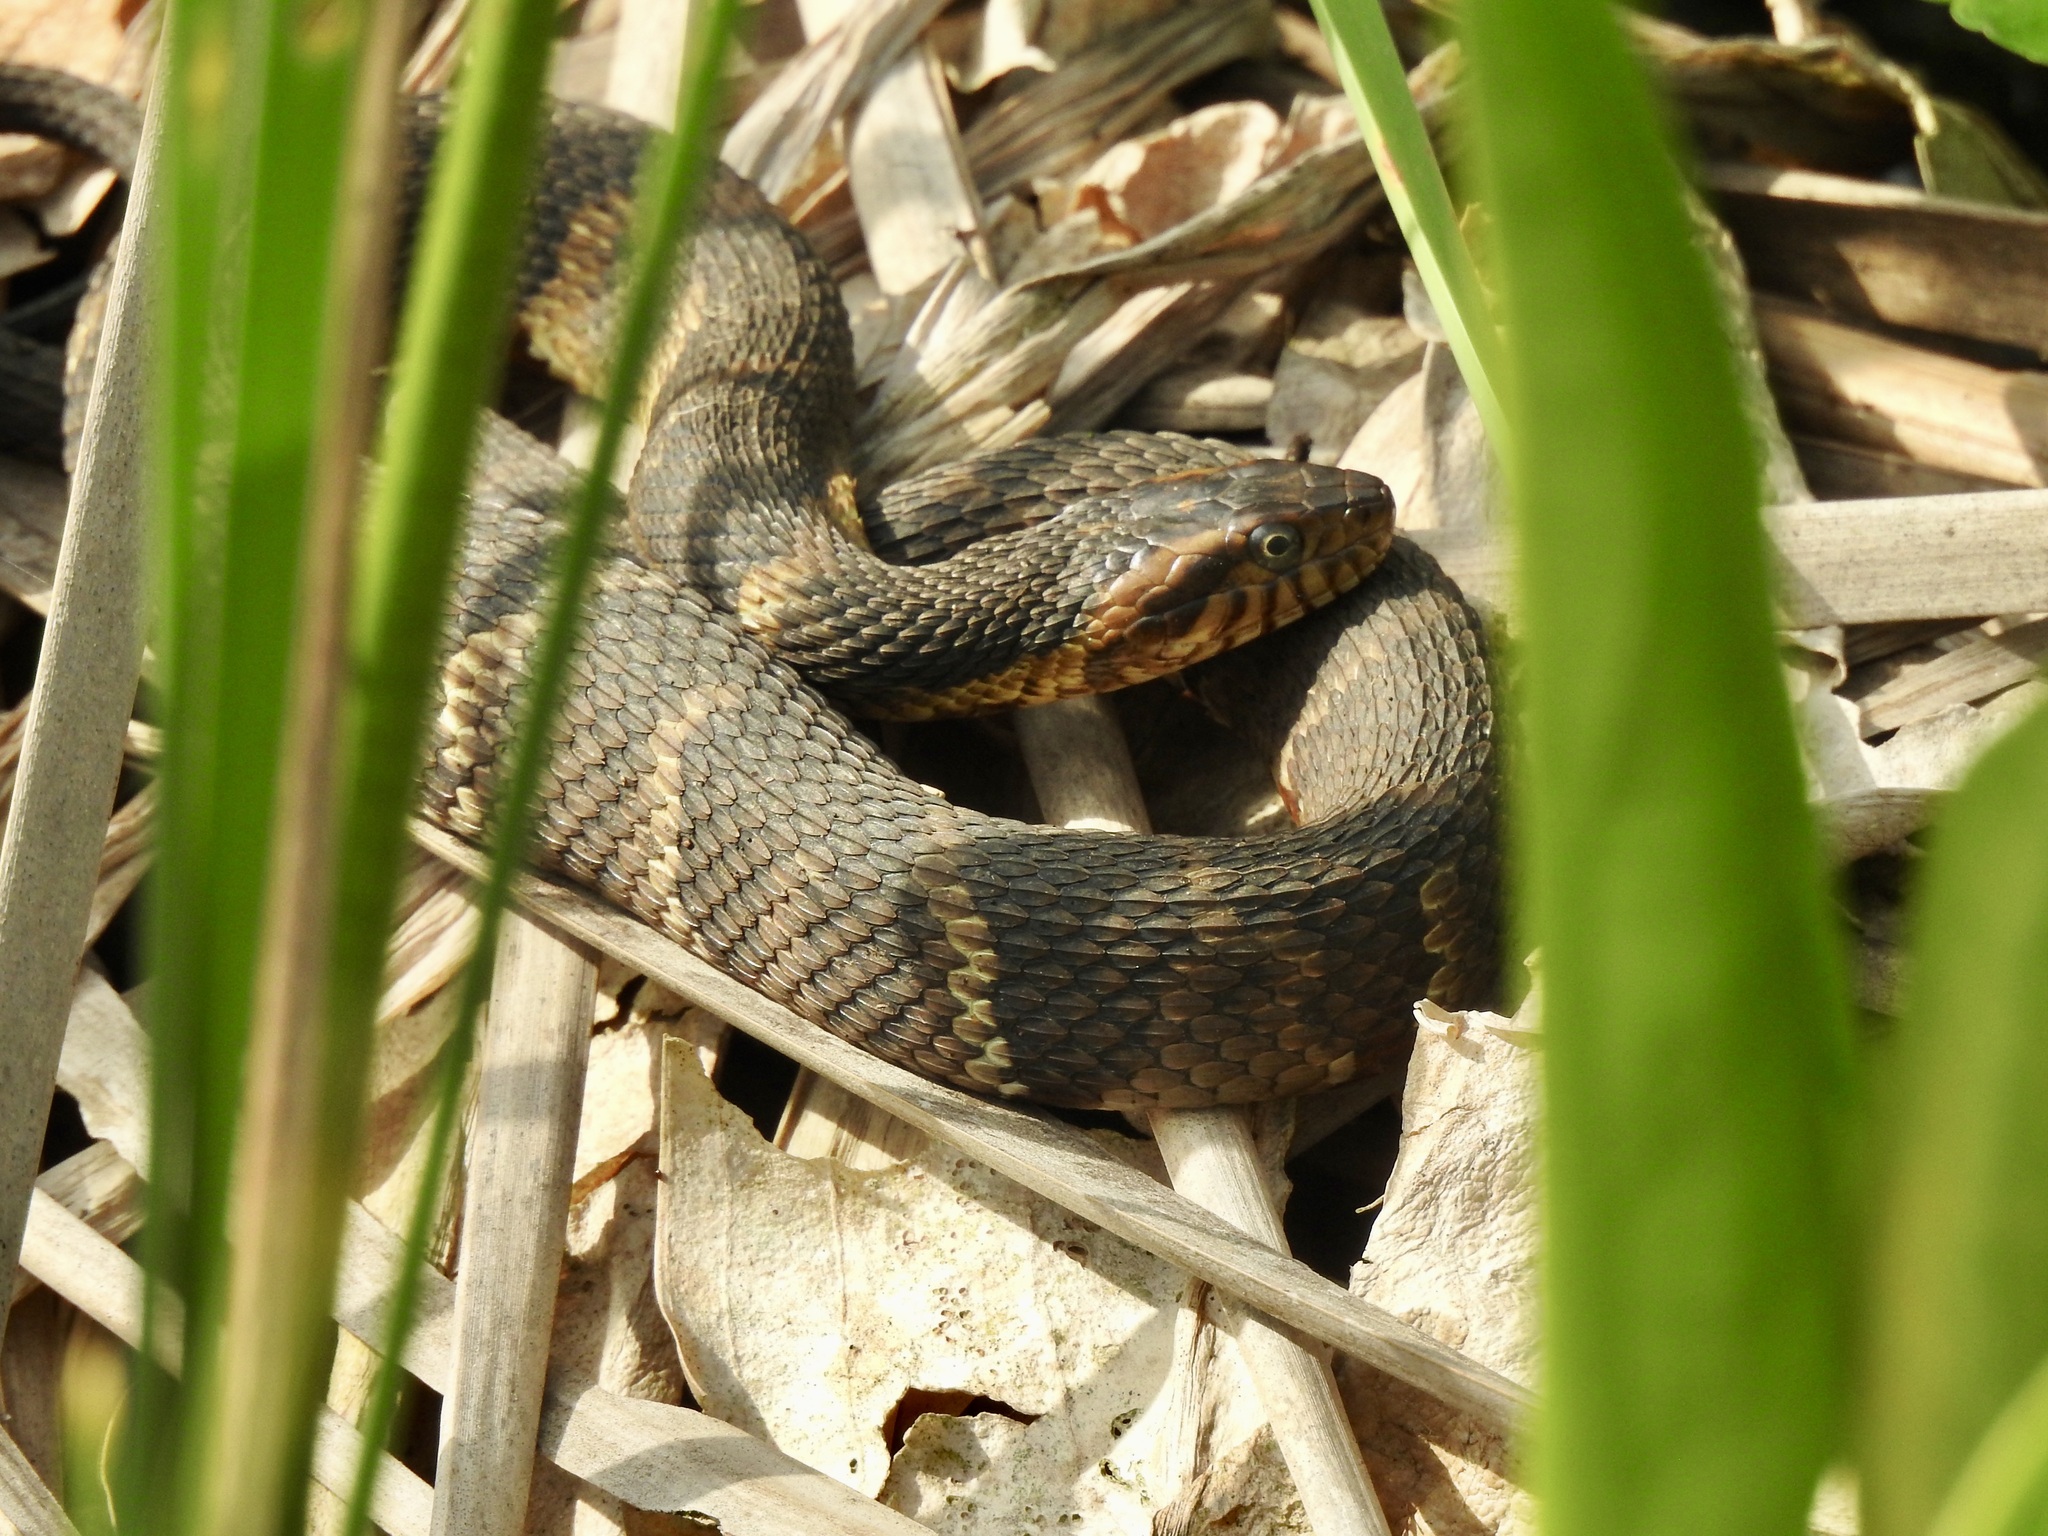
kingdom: Animalia
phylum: Chordata
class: Squamata
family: Colubridae
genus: Nerodia
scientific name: Nerodia fasciata
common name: Southern water snake
